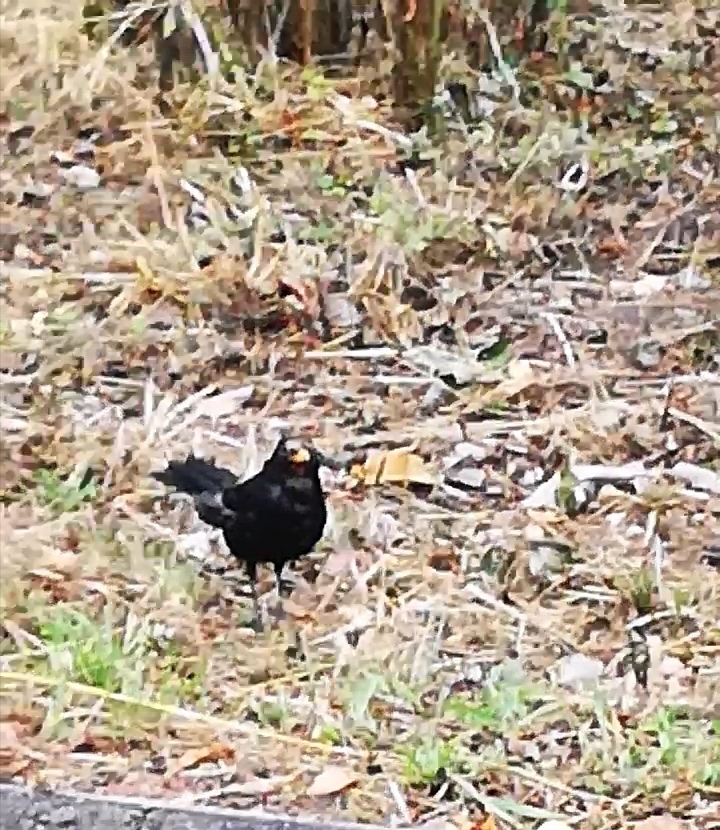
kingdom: Animalia
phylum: Chordata
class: Aves
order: Passeriformes
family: Turdidae
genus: Turdus
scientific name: Turdus merula
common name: Common blackbird
